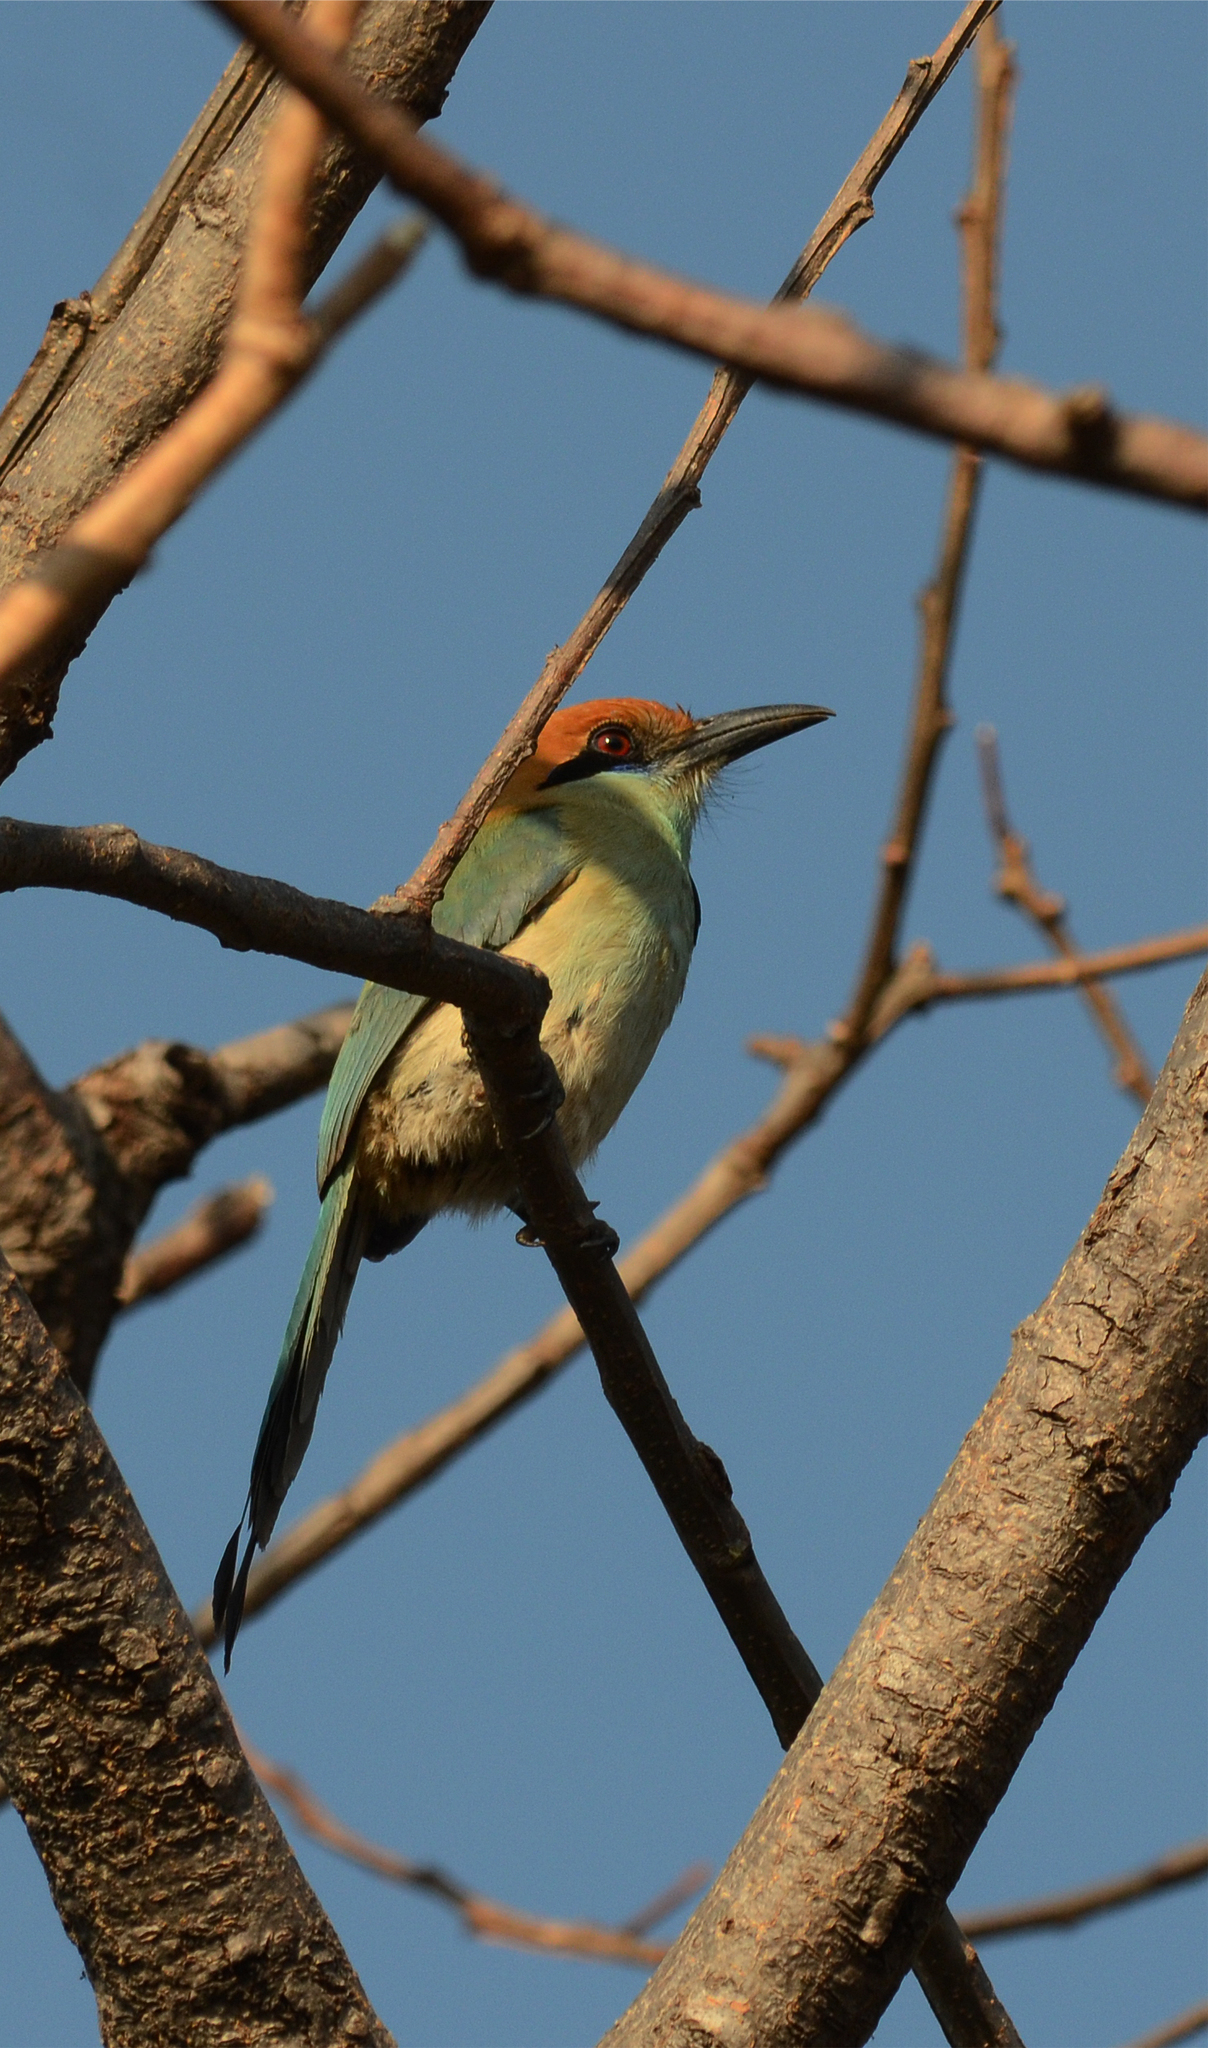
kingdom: Animalia
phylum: Chordata
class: Aves
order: Coraciiformes
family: Momotidae
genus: Momotus
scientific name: Momotus mexicanus
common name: Russet-crowned motmot
